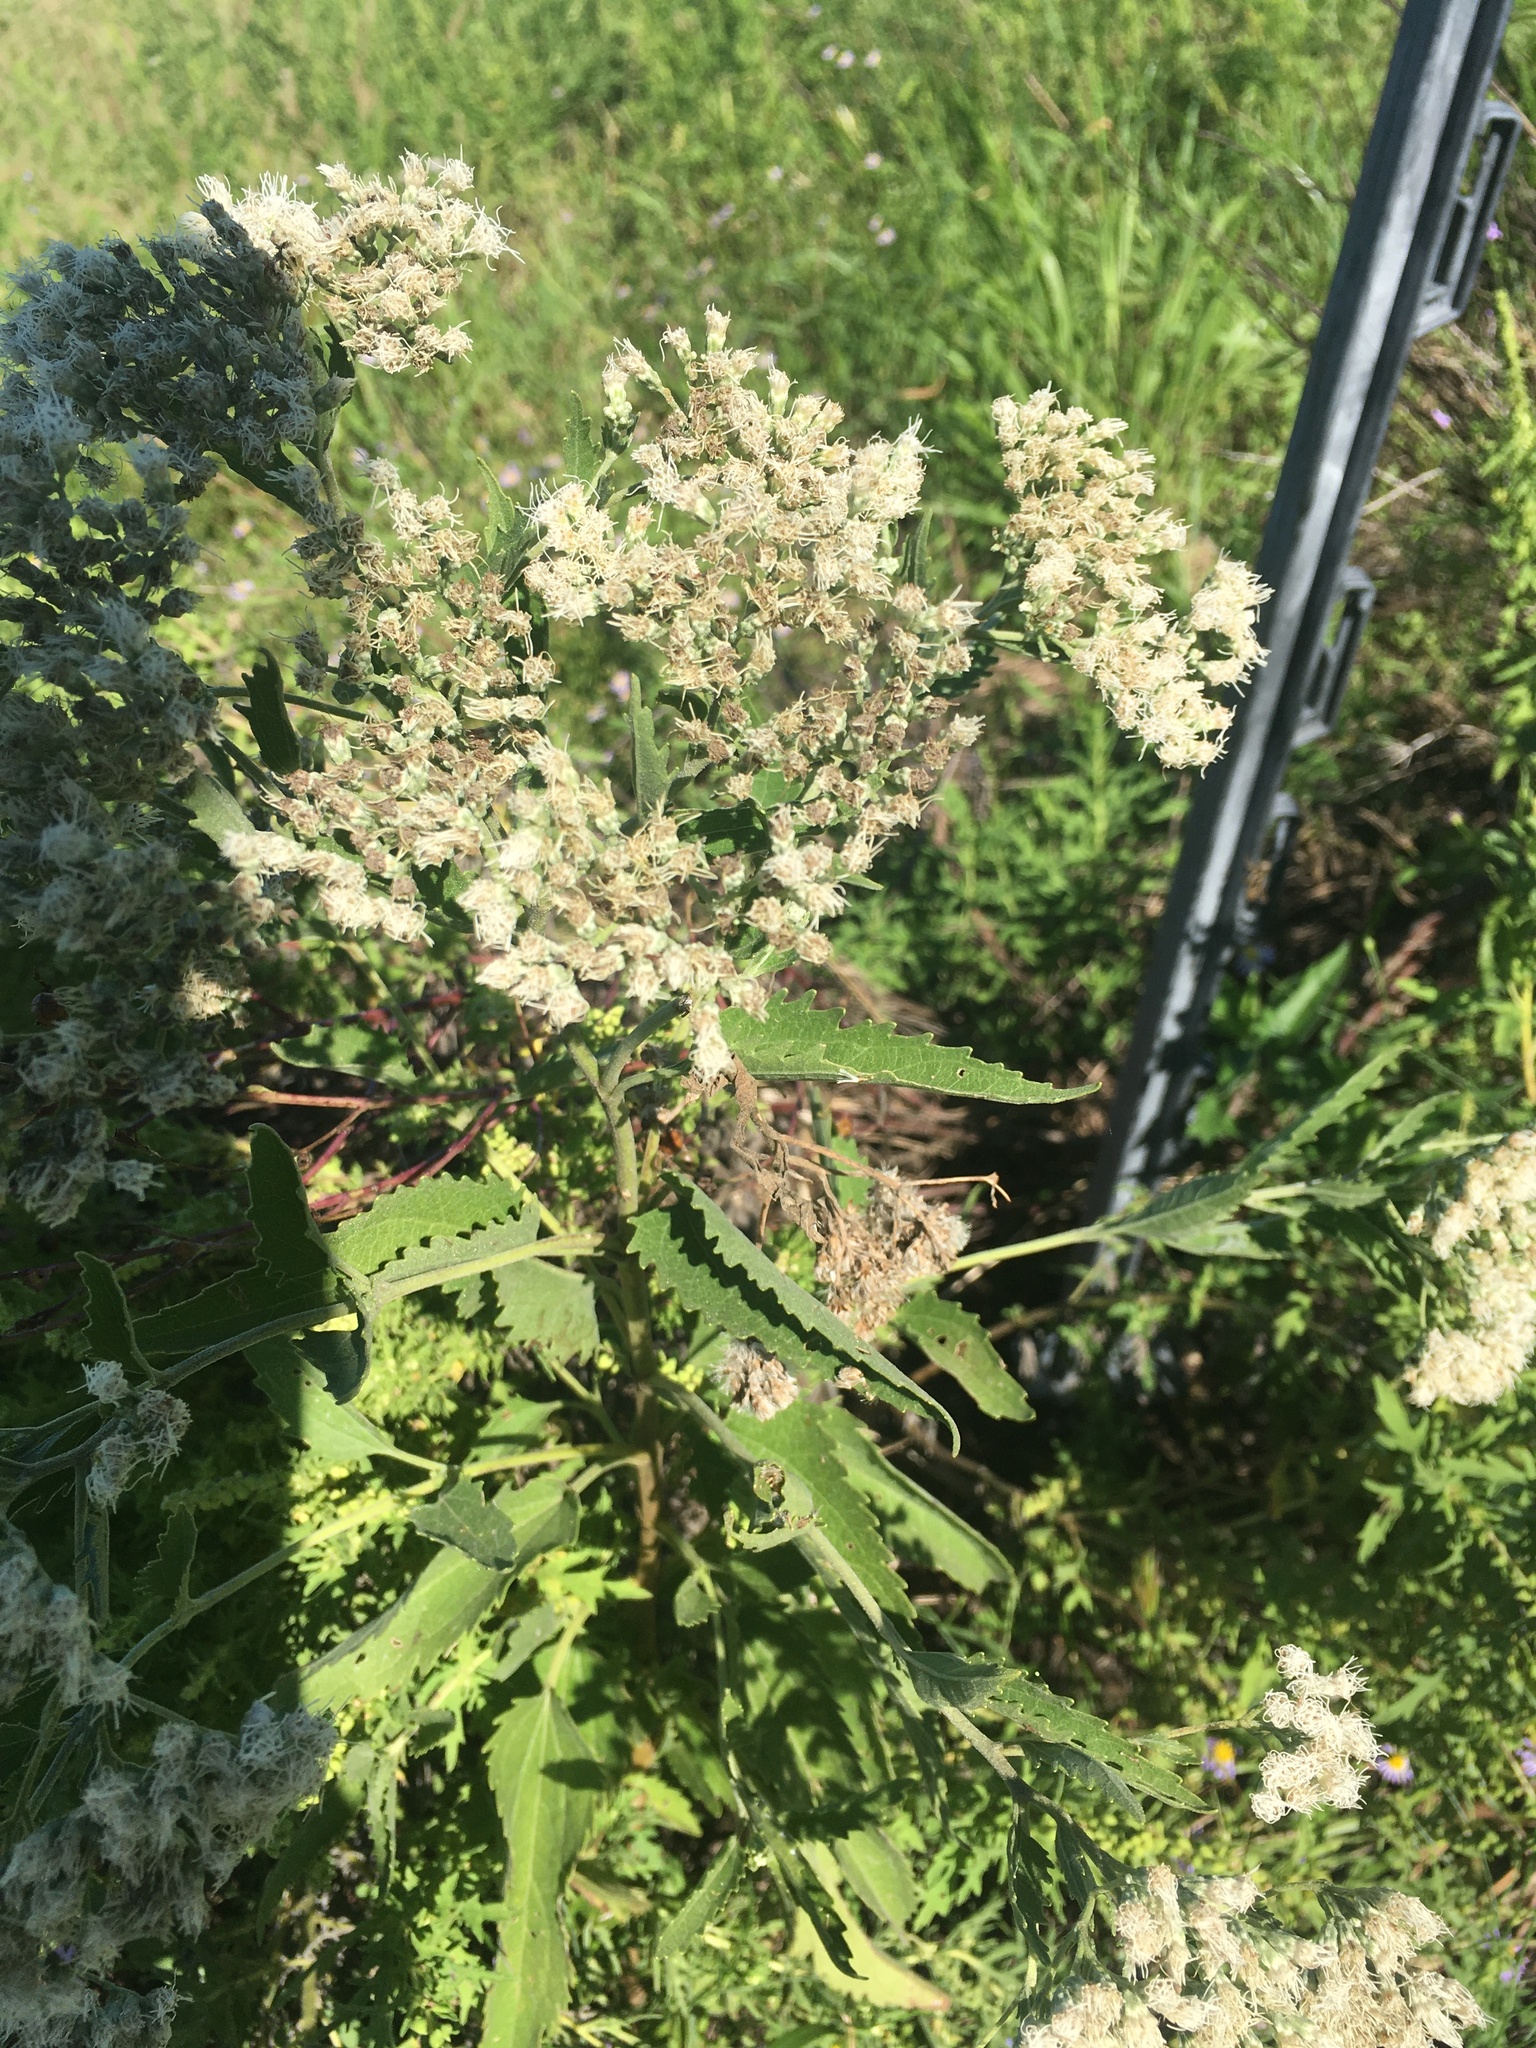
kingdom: Plantae
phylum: Tracheophyta
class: Magnoliopsida
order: Asterales
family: Asteraceae
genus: Eupatorium
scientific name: Eupatorium serotinum
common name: Late boneset
